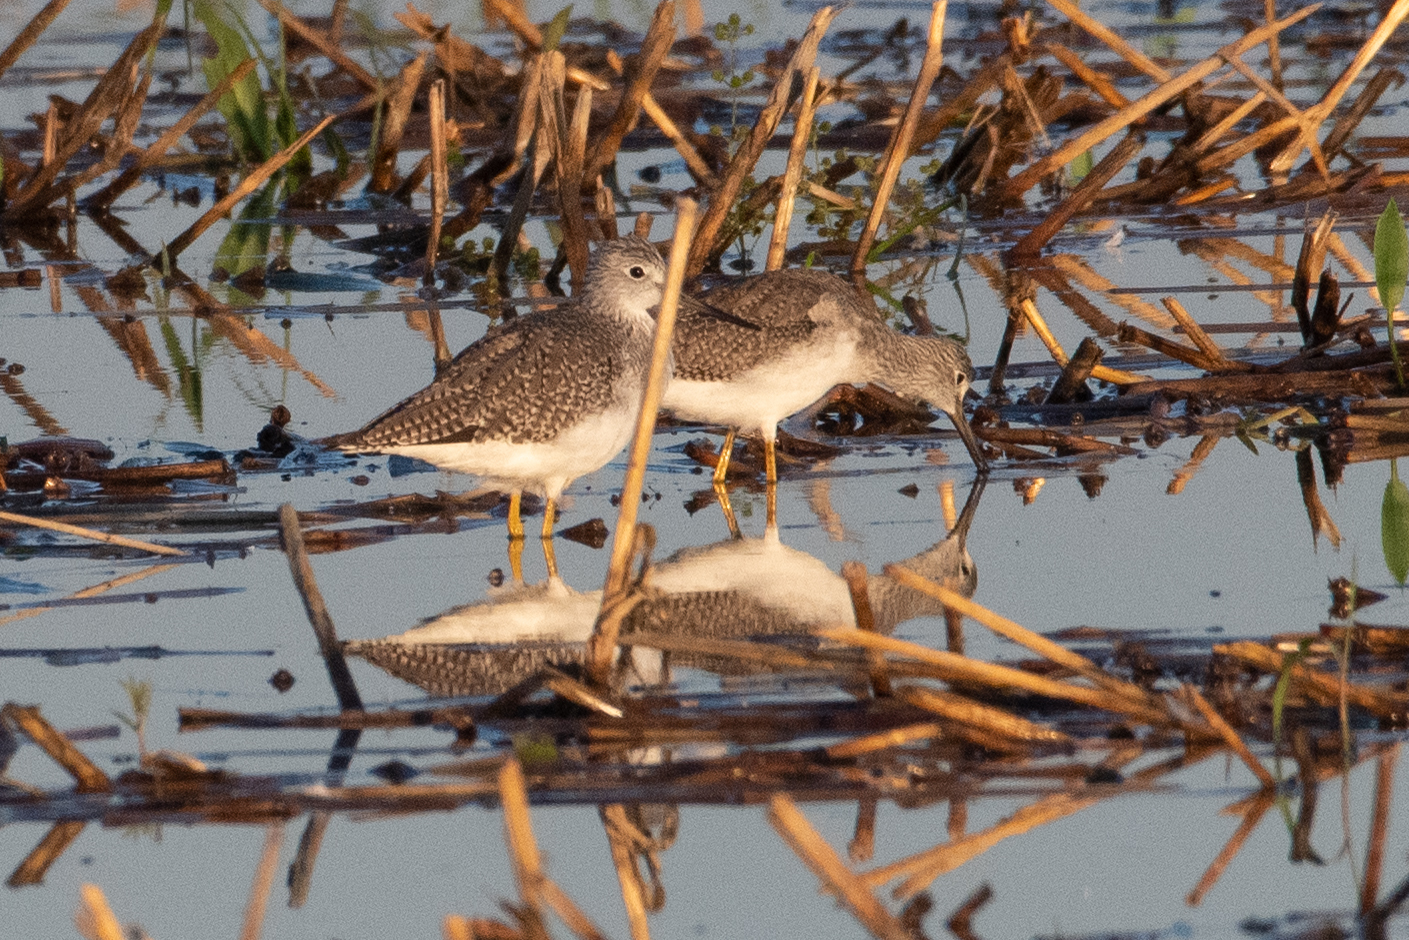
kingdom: Animalia
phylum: Chordata
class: Aves
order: Charadriiformes
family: Scolopacidae
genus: Tringa
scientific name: Tringa melanoleuca
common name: Greater yellowlegs
